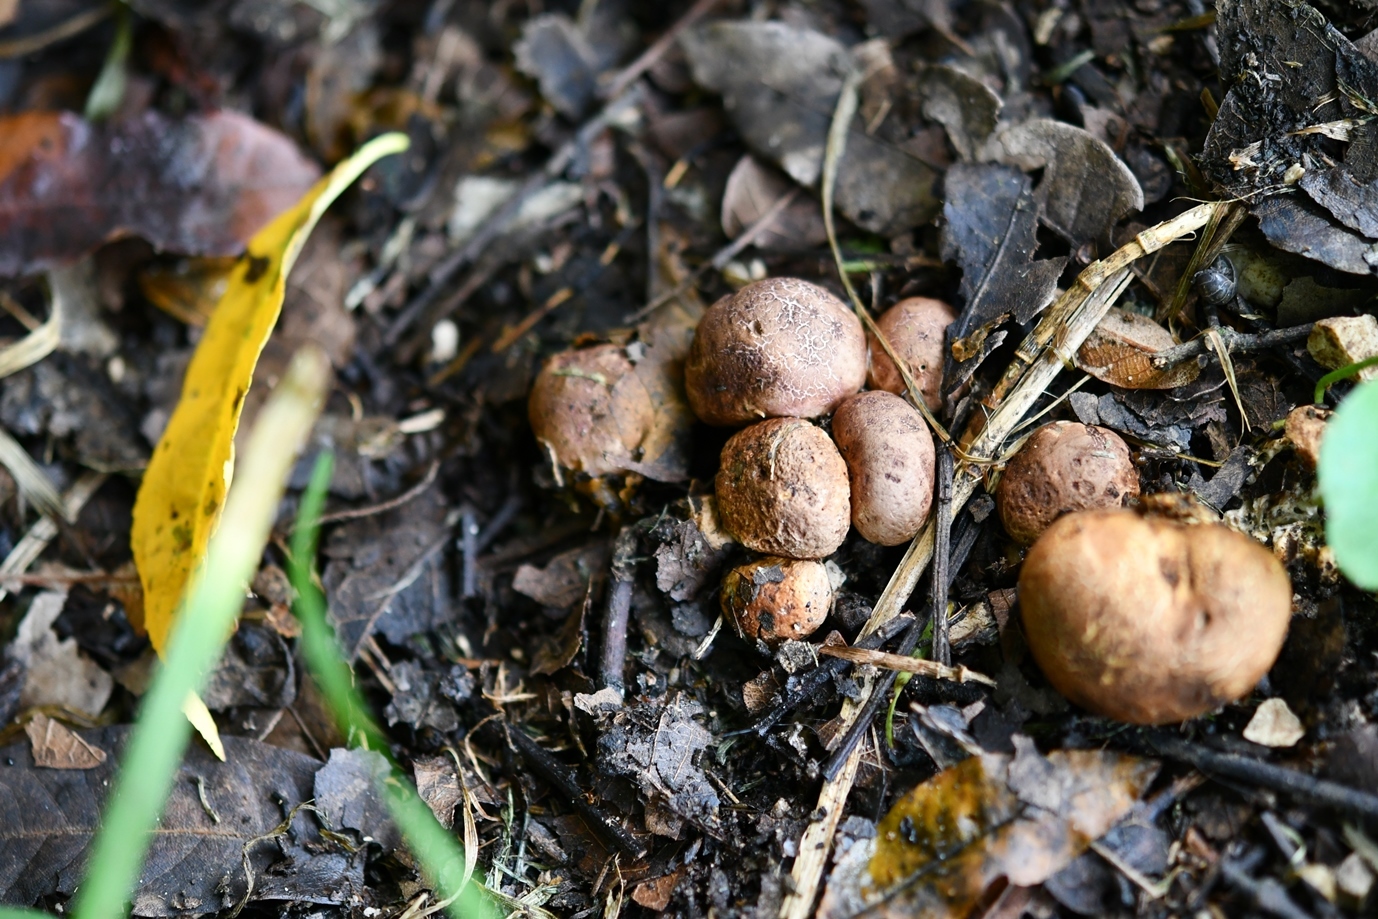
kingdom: Fungi
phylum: Basidiomycota
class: Agaricomycetes
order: Boletales
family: Sclerodermataceae
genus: Scleroderma
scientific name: Scleroderma citrinum
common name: Common earthball
